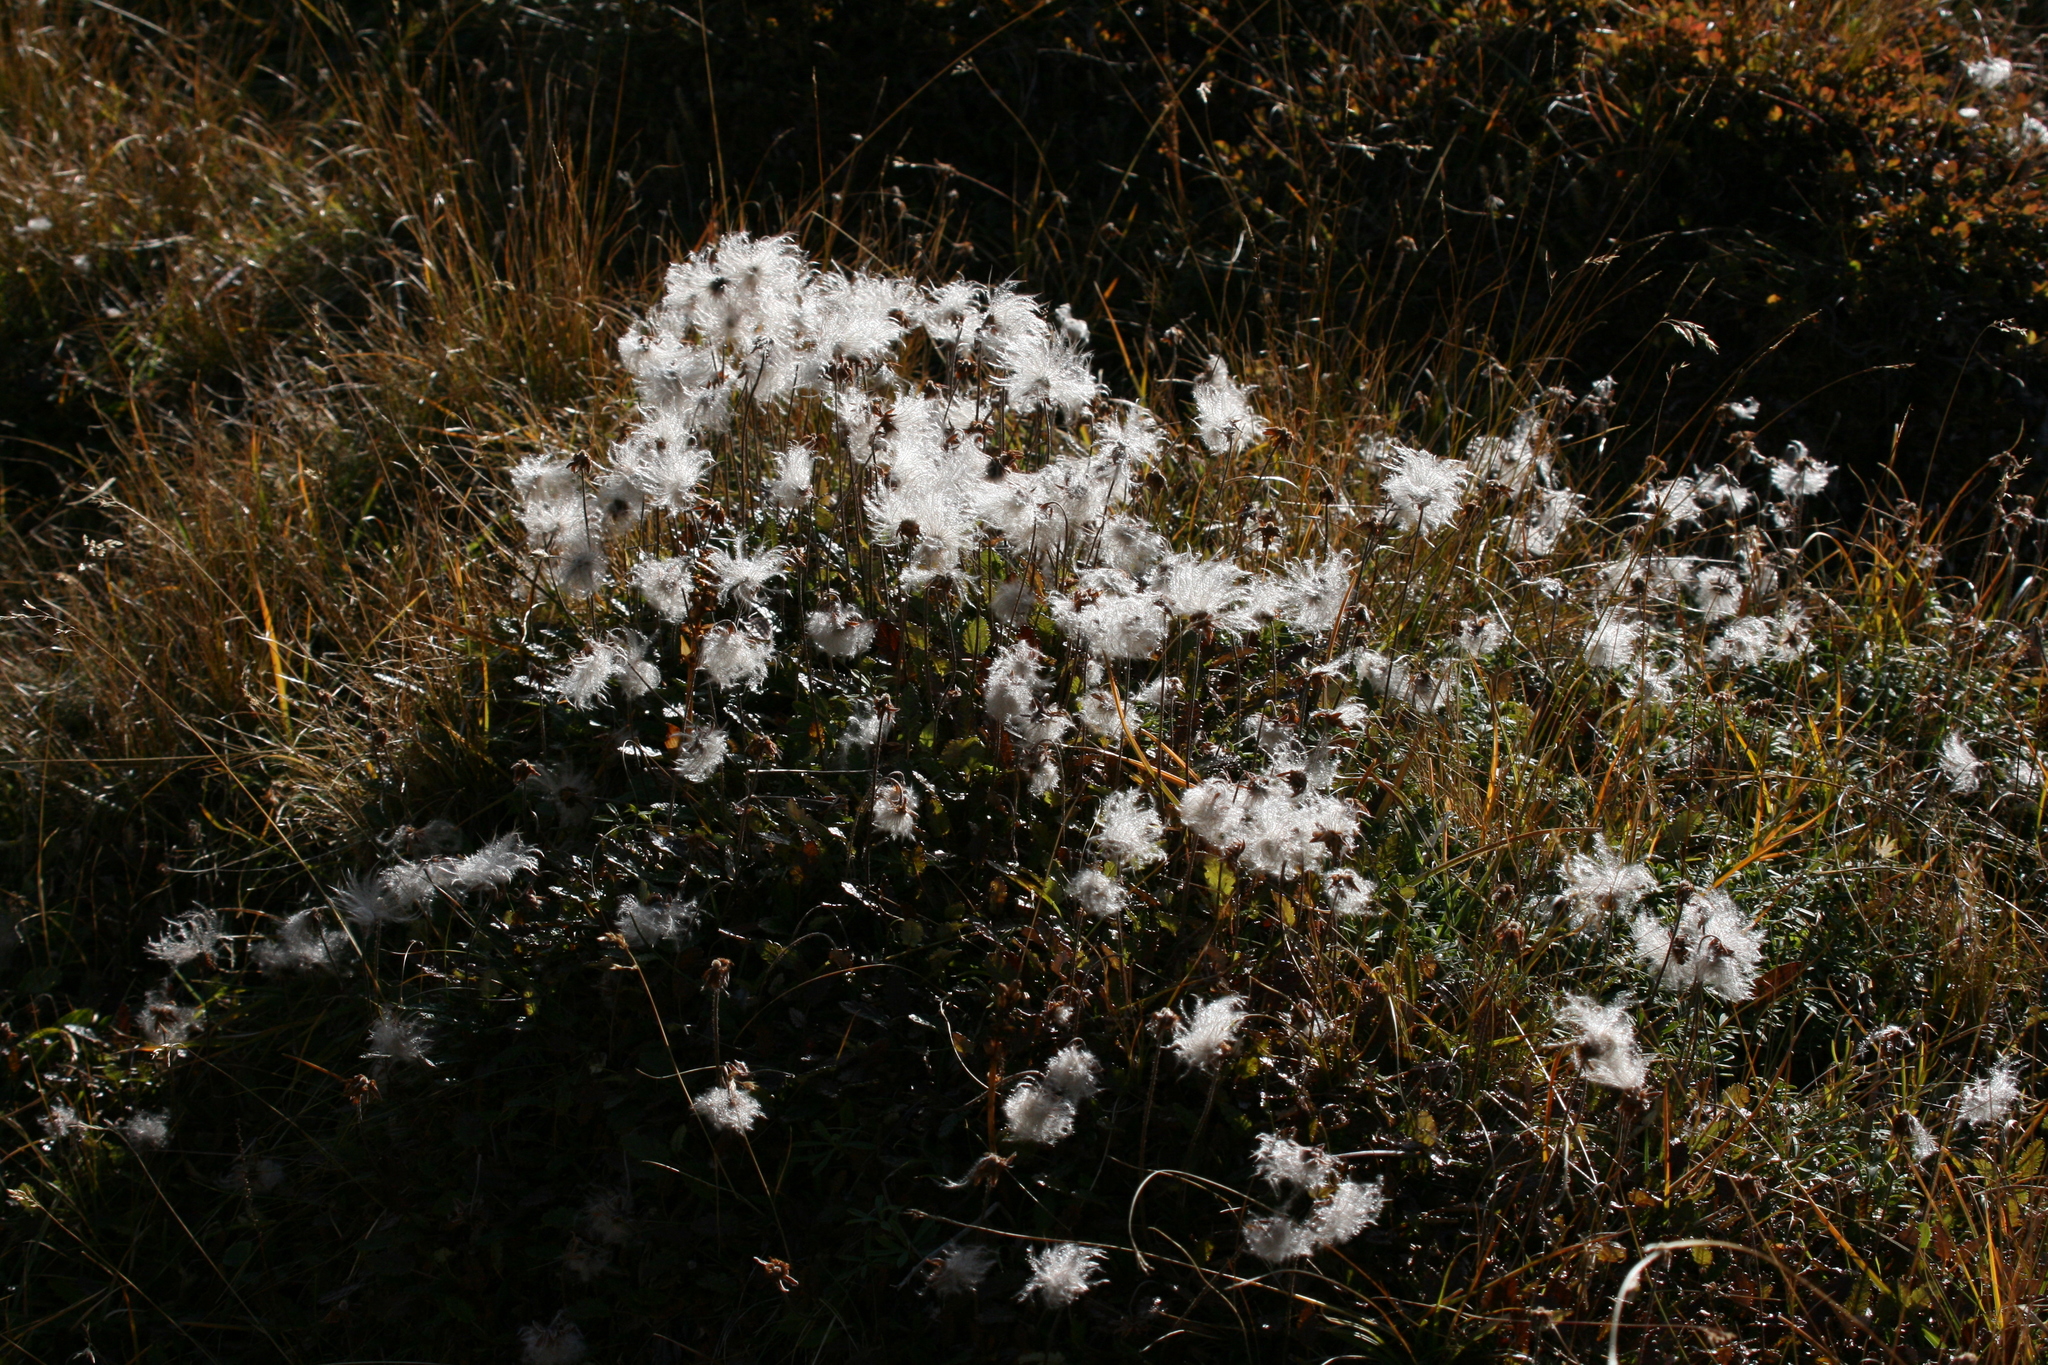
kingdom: Plantae
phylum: Tracheophyta
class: Magnoliopsida
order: Rosales
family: Rosaceae
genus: Dryas
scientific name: Dryas octopetala
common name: Eight-petal mountain-avens
